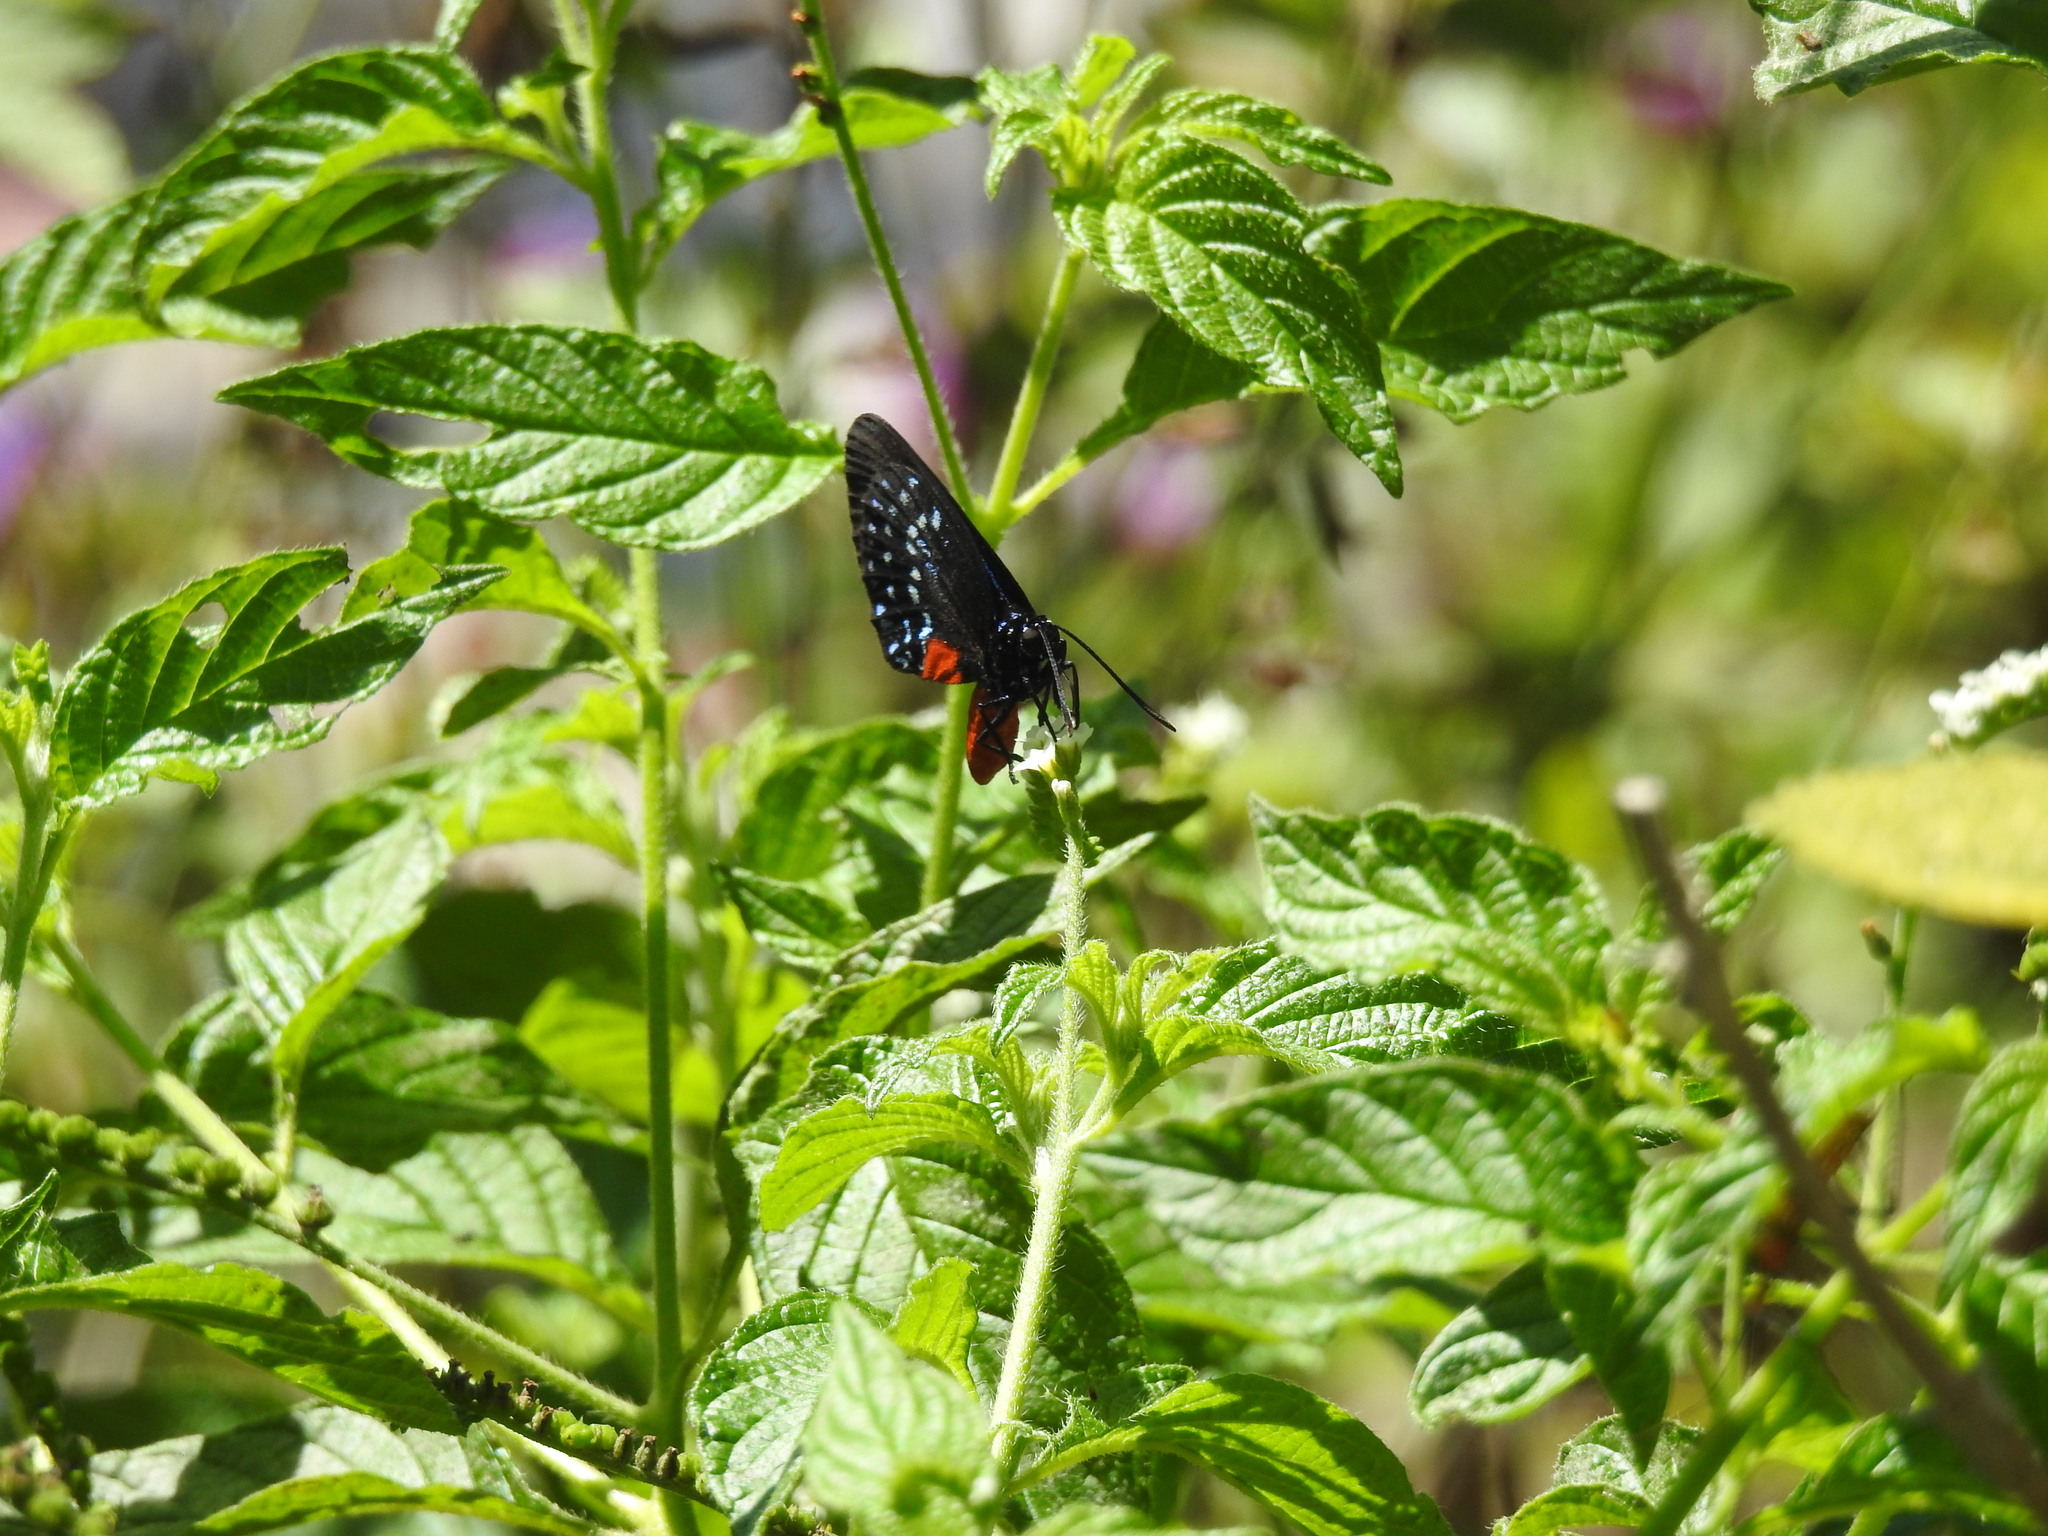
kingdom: Animalia
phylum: Arthropoda
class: Insecta
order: Lepidoptera
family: Lycaenidae
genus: Eumaeus
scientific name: Eumaeus atala
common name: Atala
